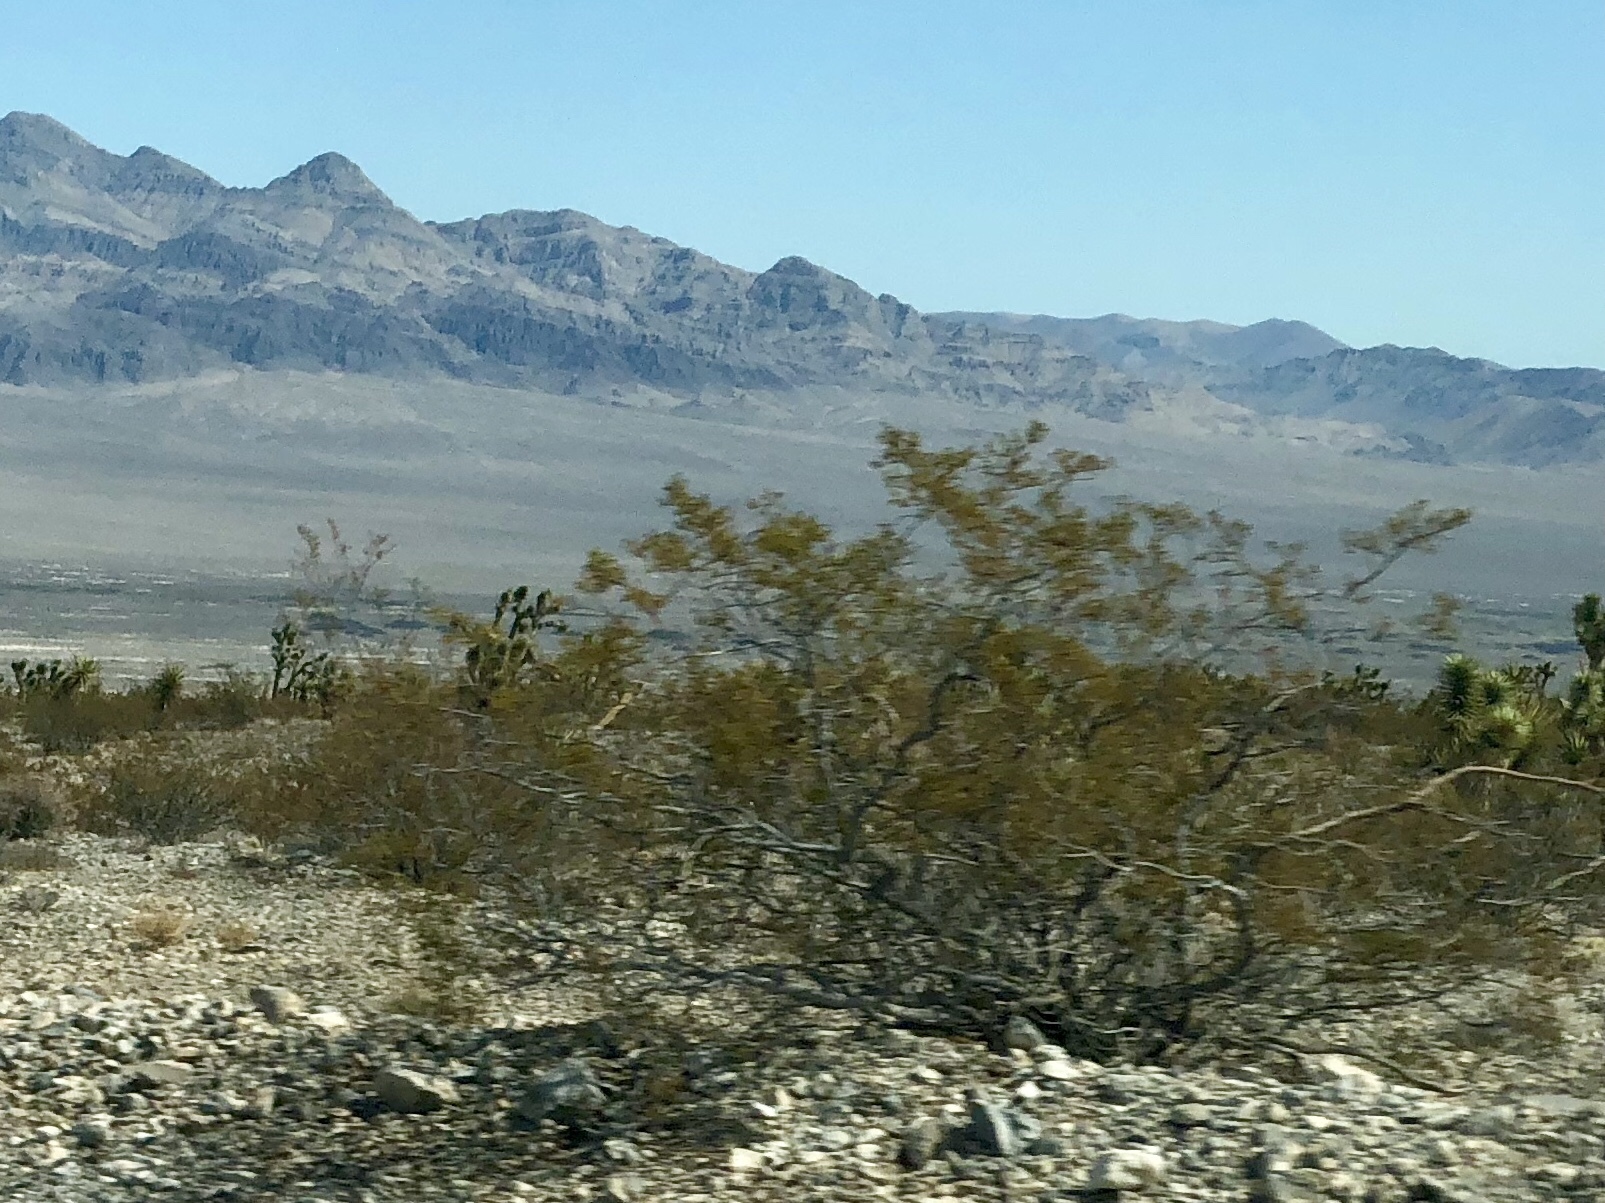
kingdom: Plantae
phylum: Tracheophyta
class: Magnoliopsida
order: Zygophyllales
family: Zygophyllaceae
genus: Larrea
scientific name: Larrea tridentata
